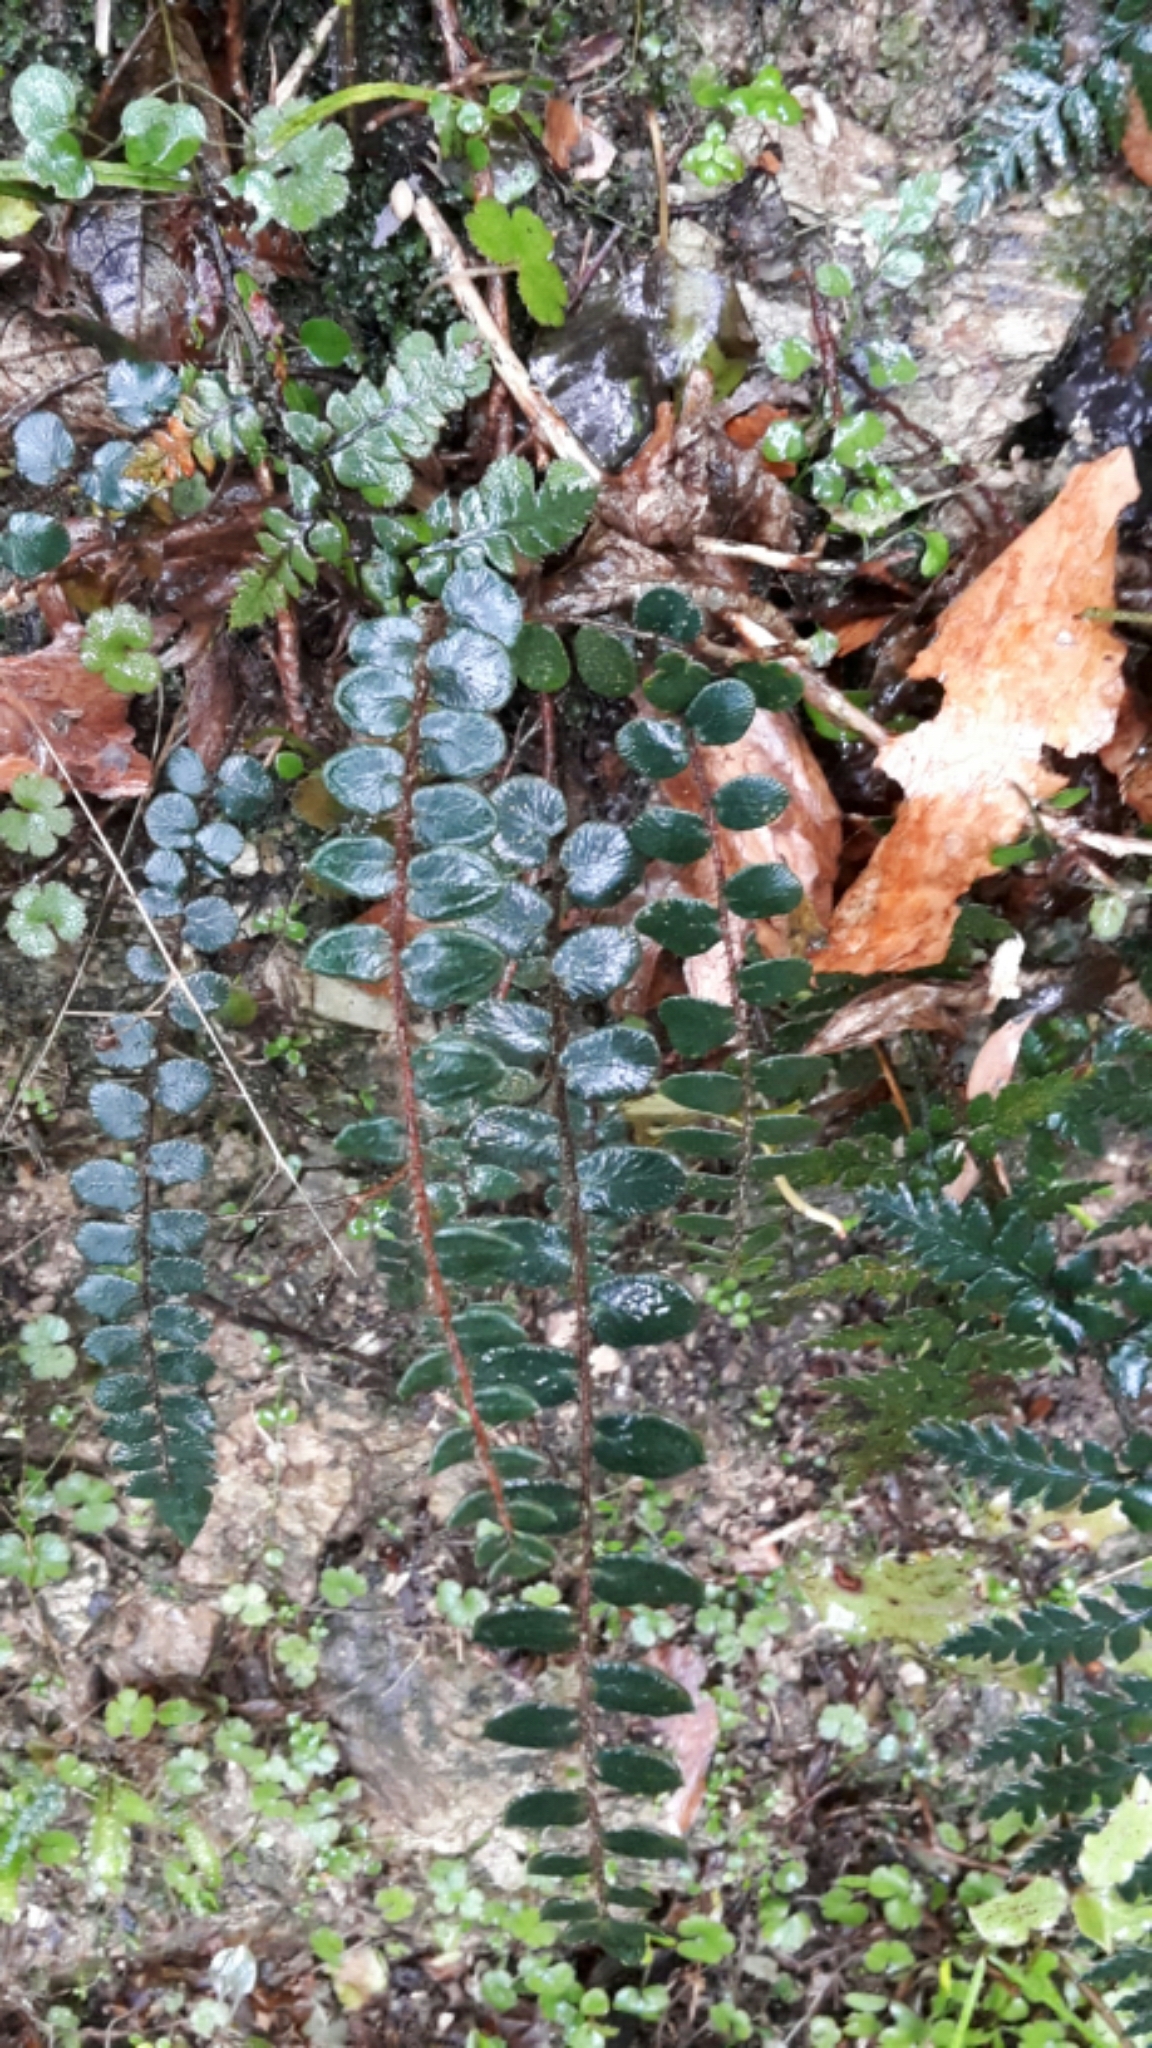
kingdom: Plantae
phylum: Tracheophyta
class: Polypodiopsida
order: Polypodiales
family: Pteridaceae
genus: Pellaea
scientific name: Pellaea rotundifolia
